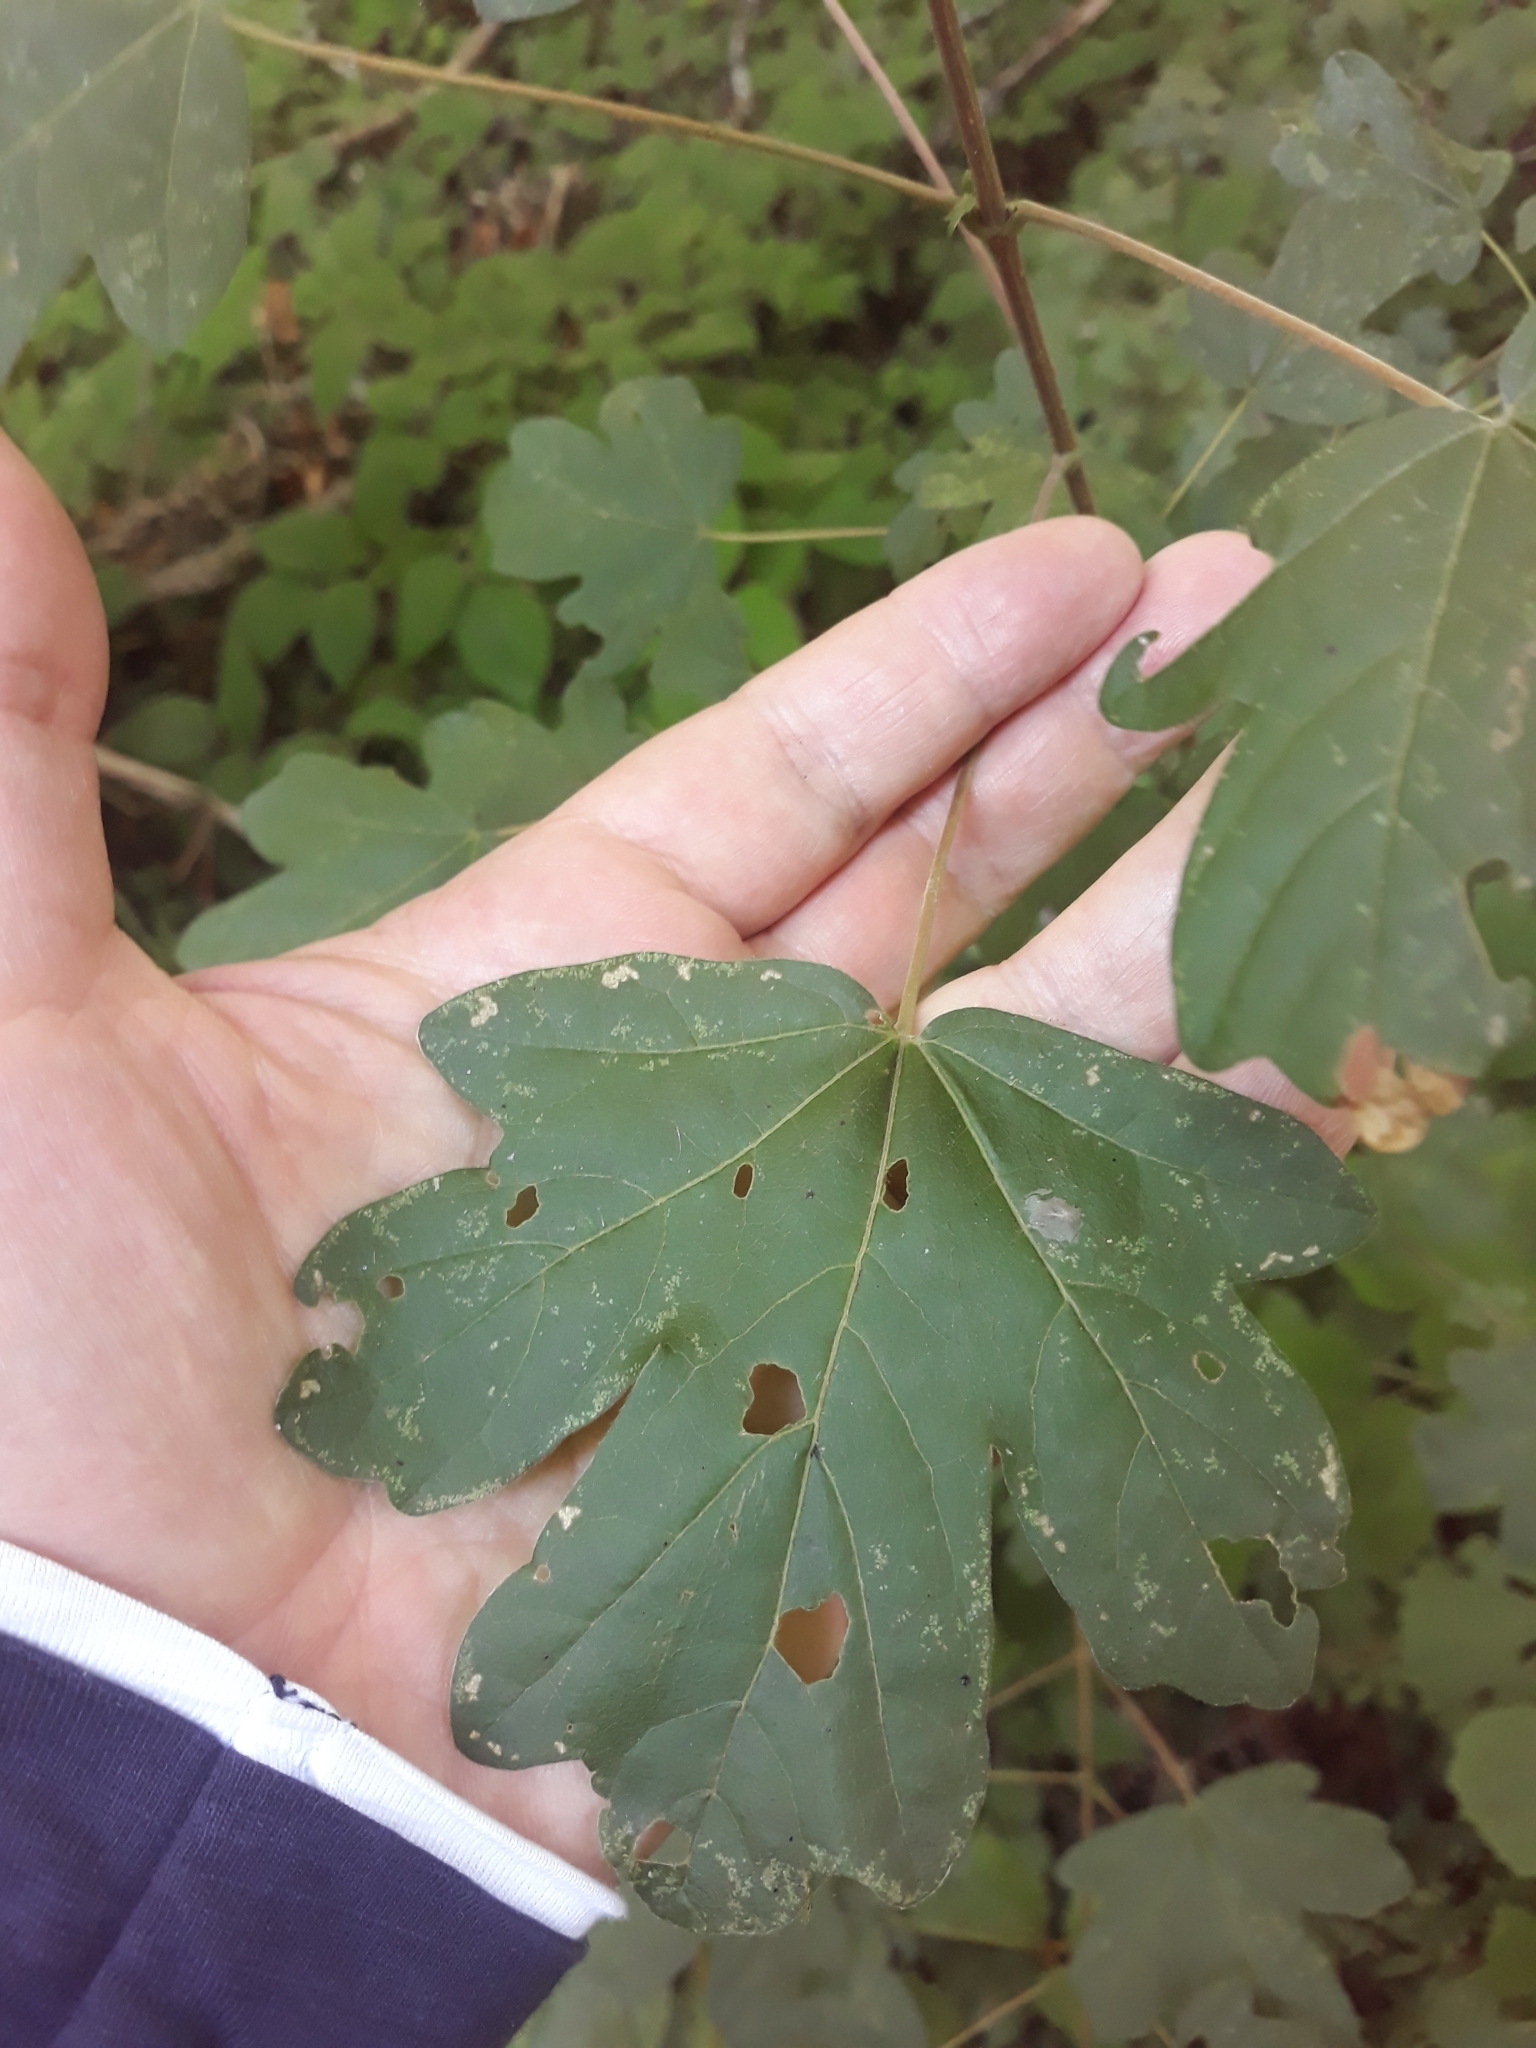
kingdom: Plantae
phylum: Tracheophyta
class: Magnoliopsida
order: Sapindales
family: Sapindaceae
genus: Acer
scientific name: Acer campestre
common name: Field maple
